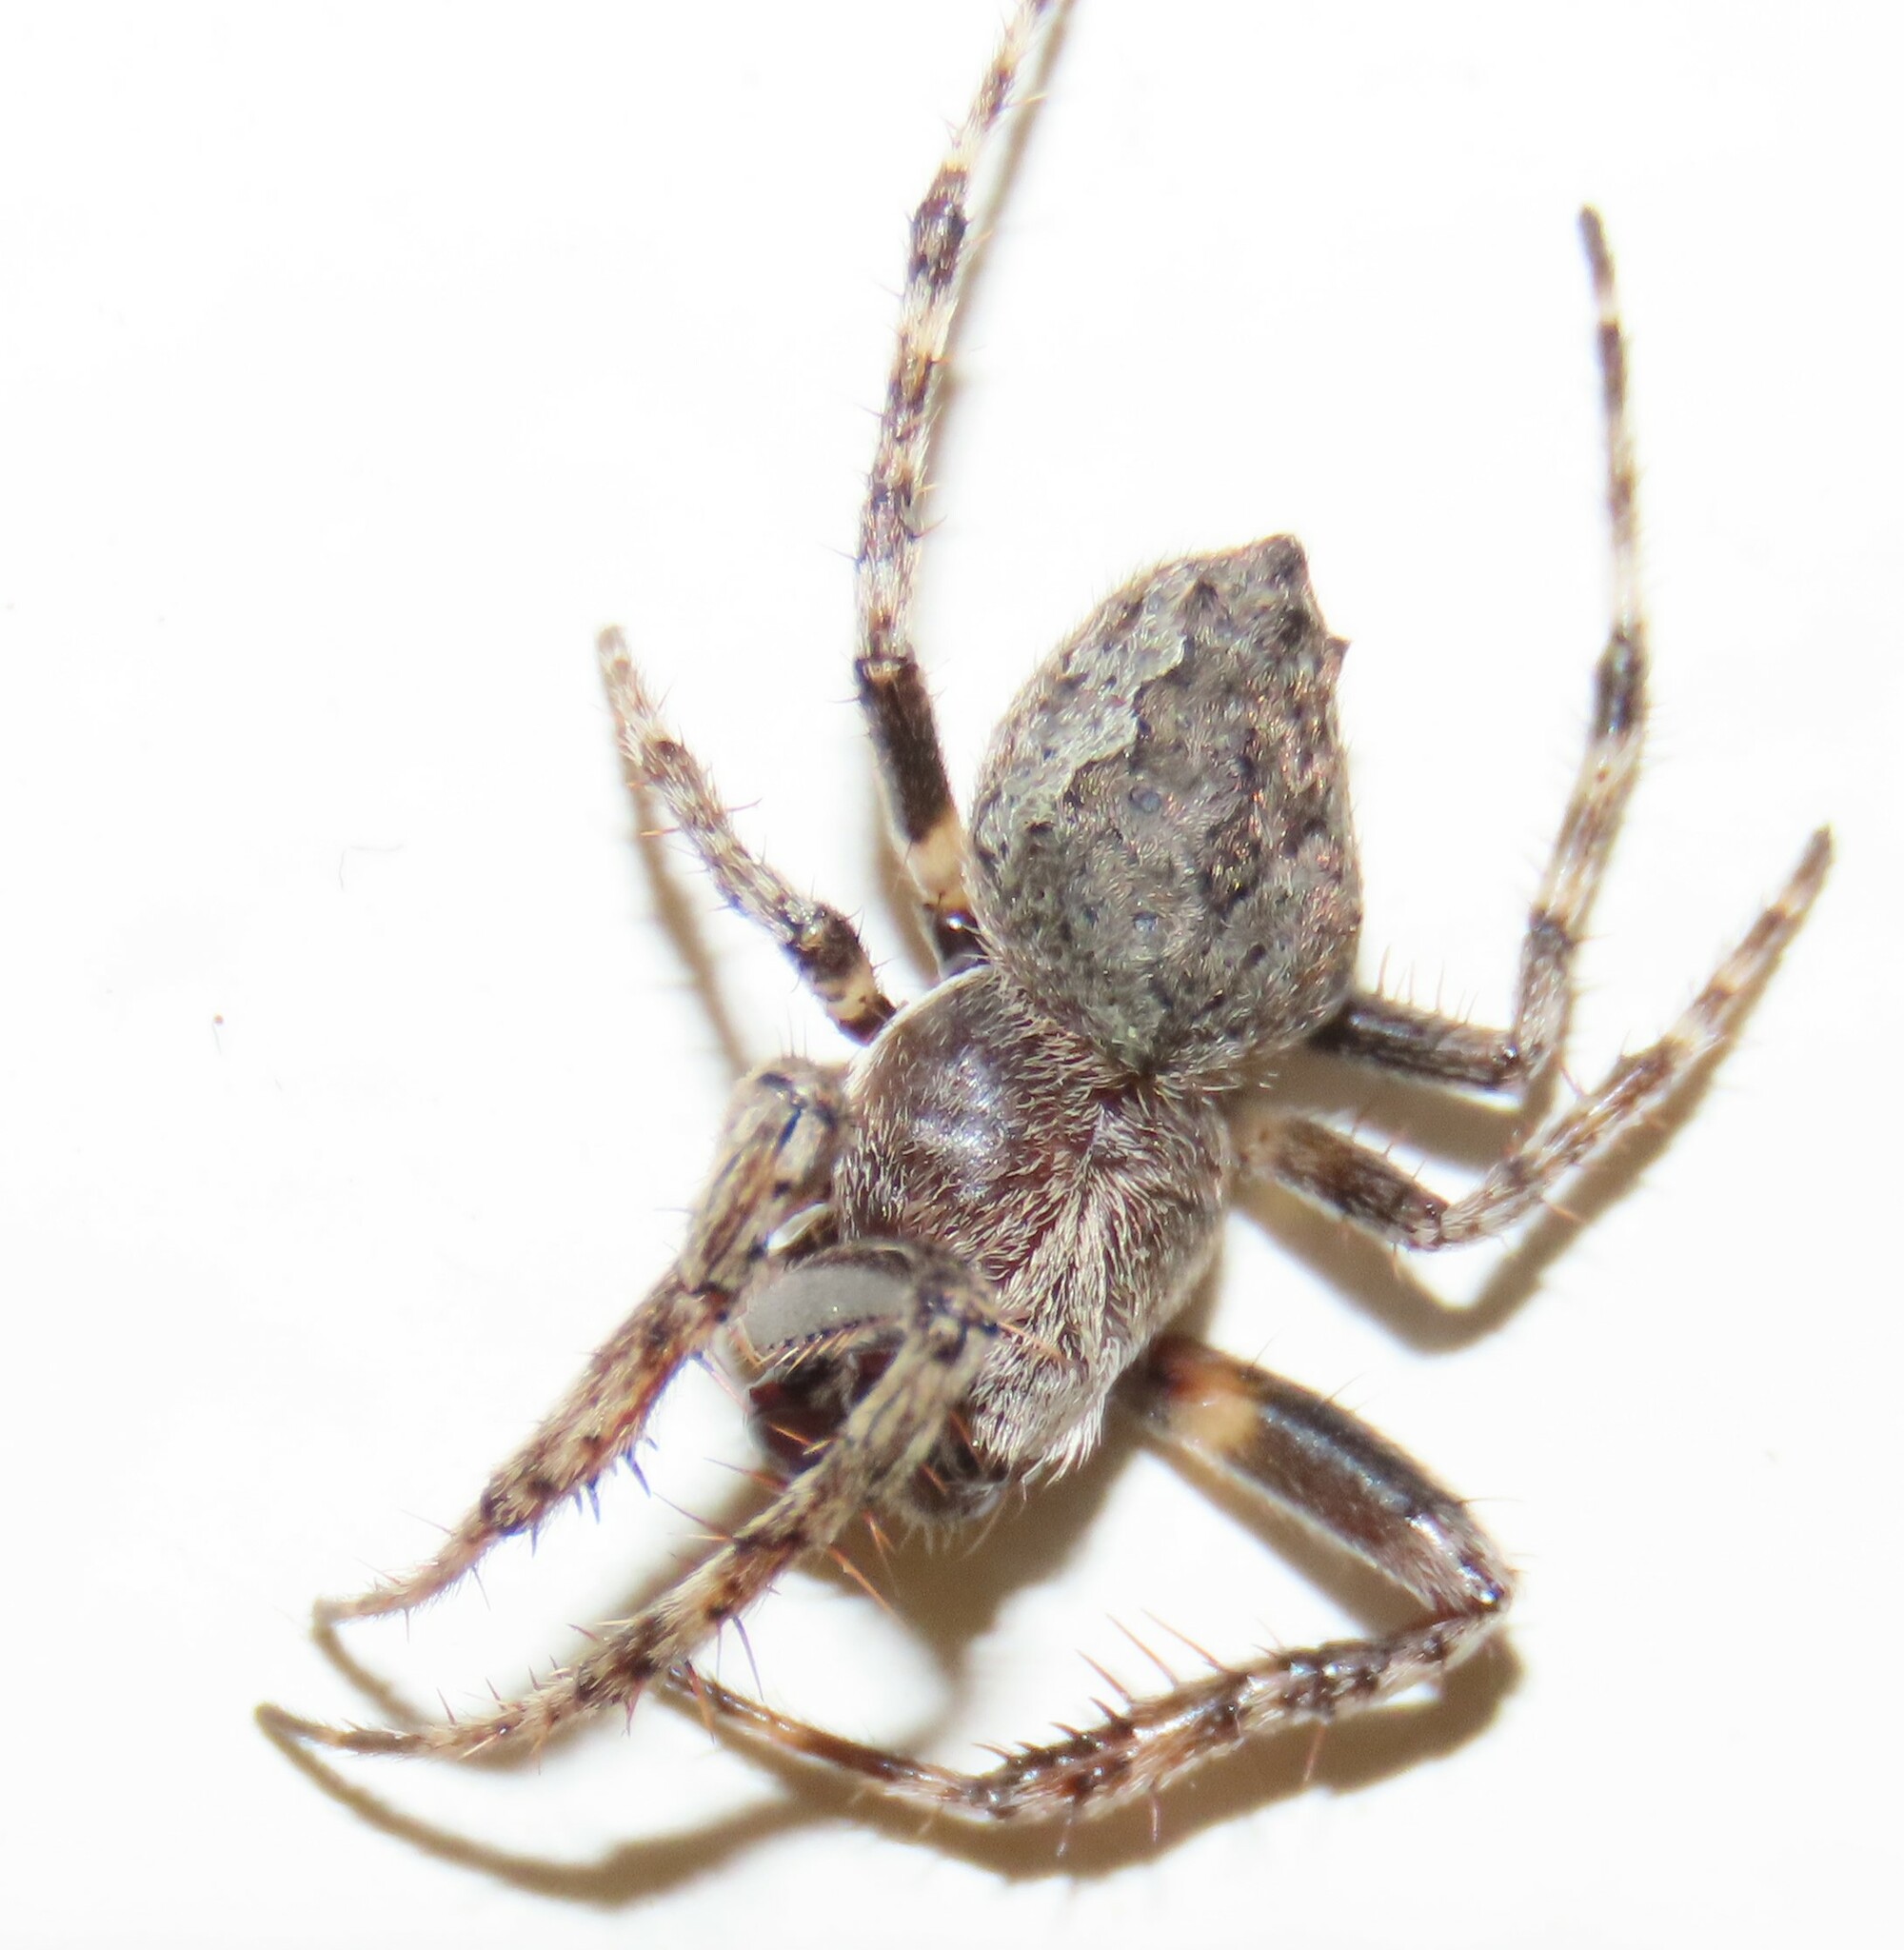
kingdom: Animalia
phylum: Arthropoda
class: Arachnida
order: Araneae
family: Araneidae
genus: Eriophora
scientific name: Eriophora pustulosa
